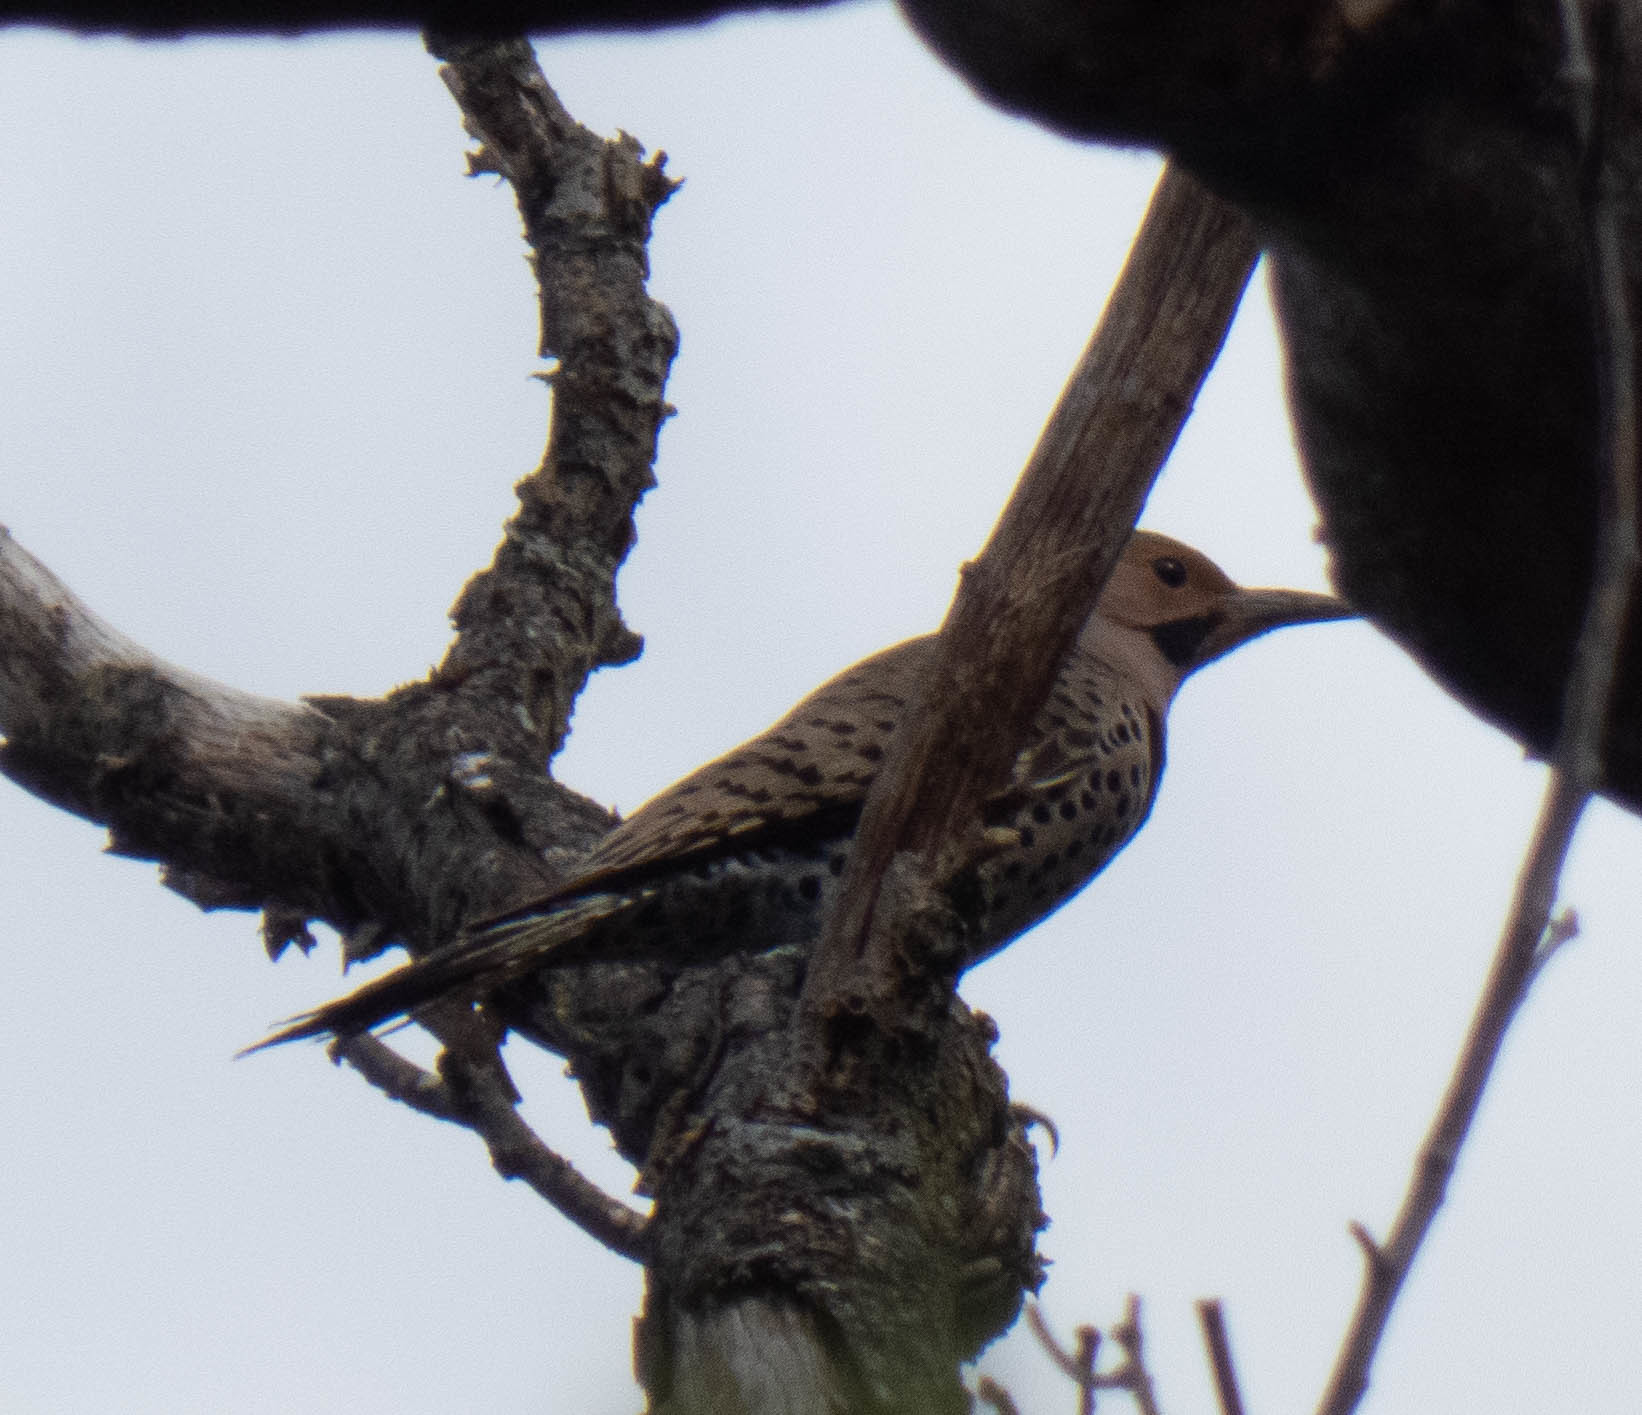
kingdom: Animalia
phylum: Chordata
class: Aves
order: Piciformes
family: Picidae
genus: Colaptes
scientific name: Colaptes auratus
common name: Northern flicker
